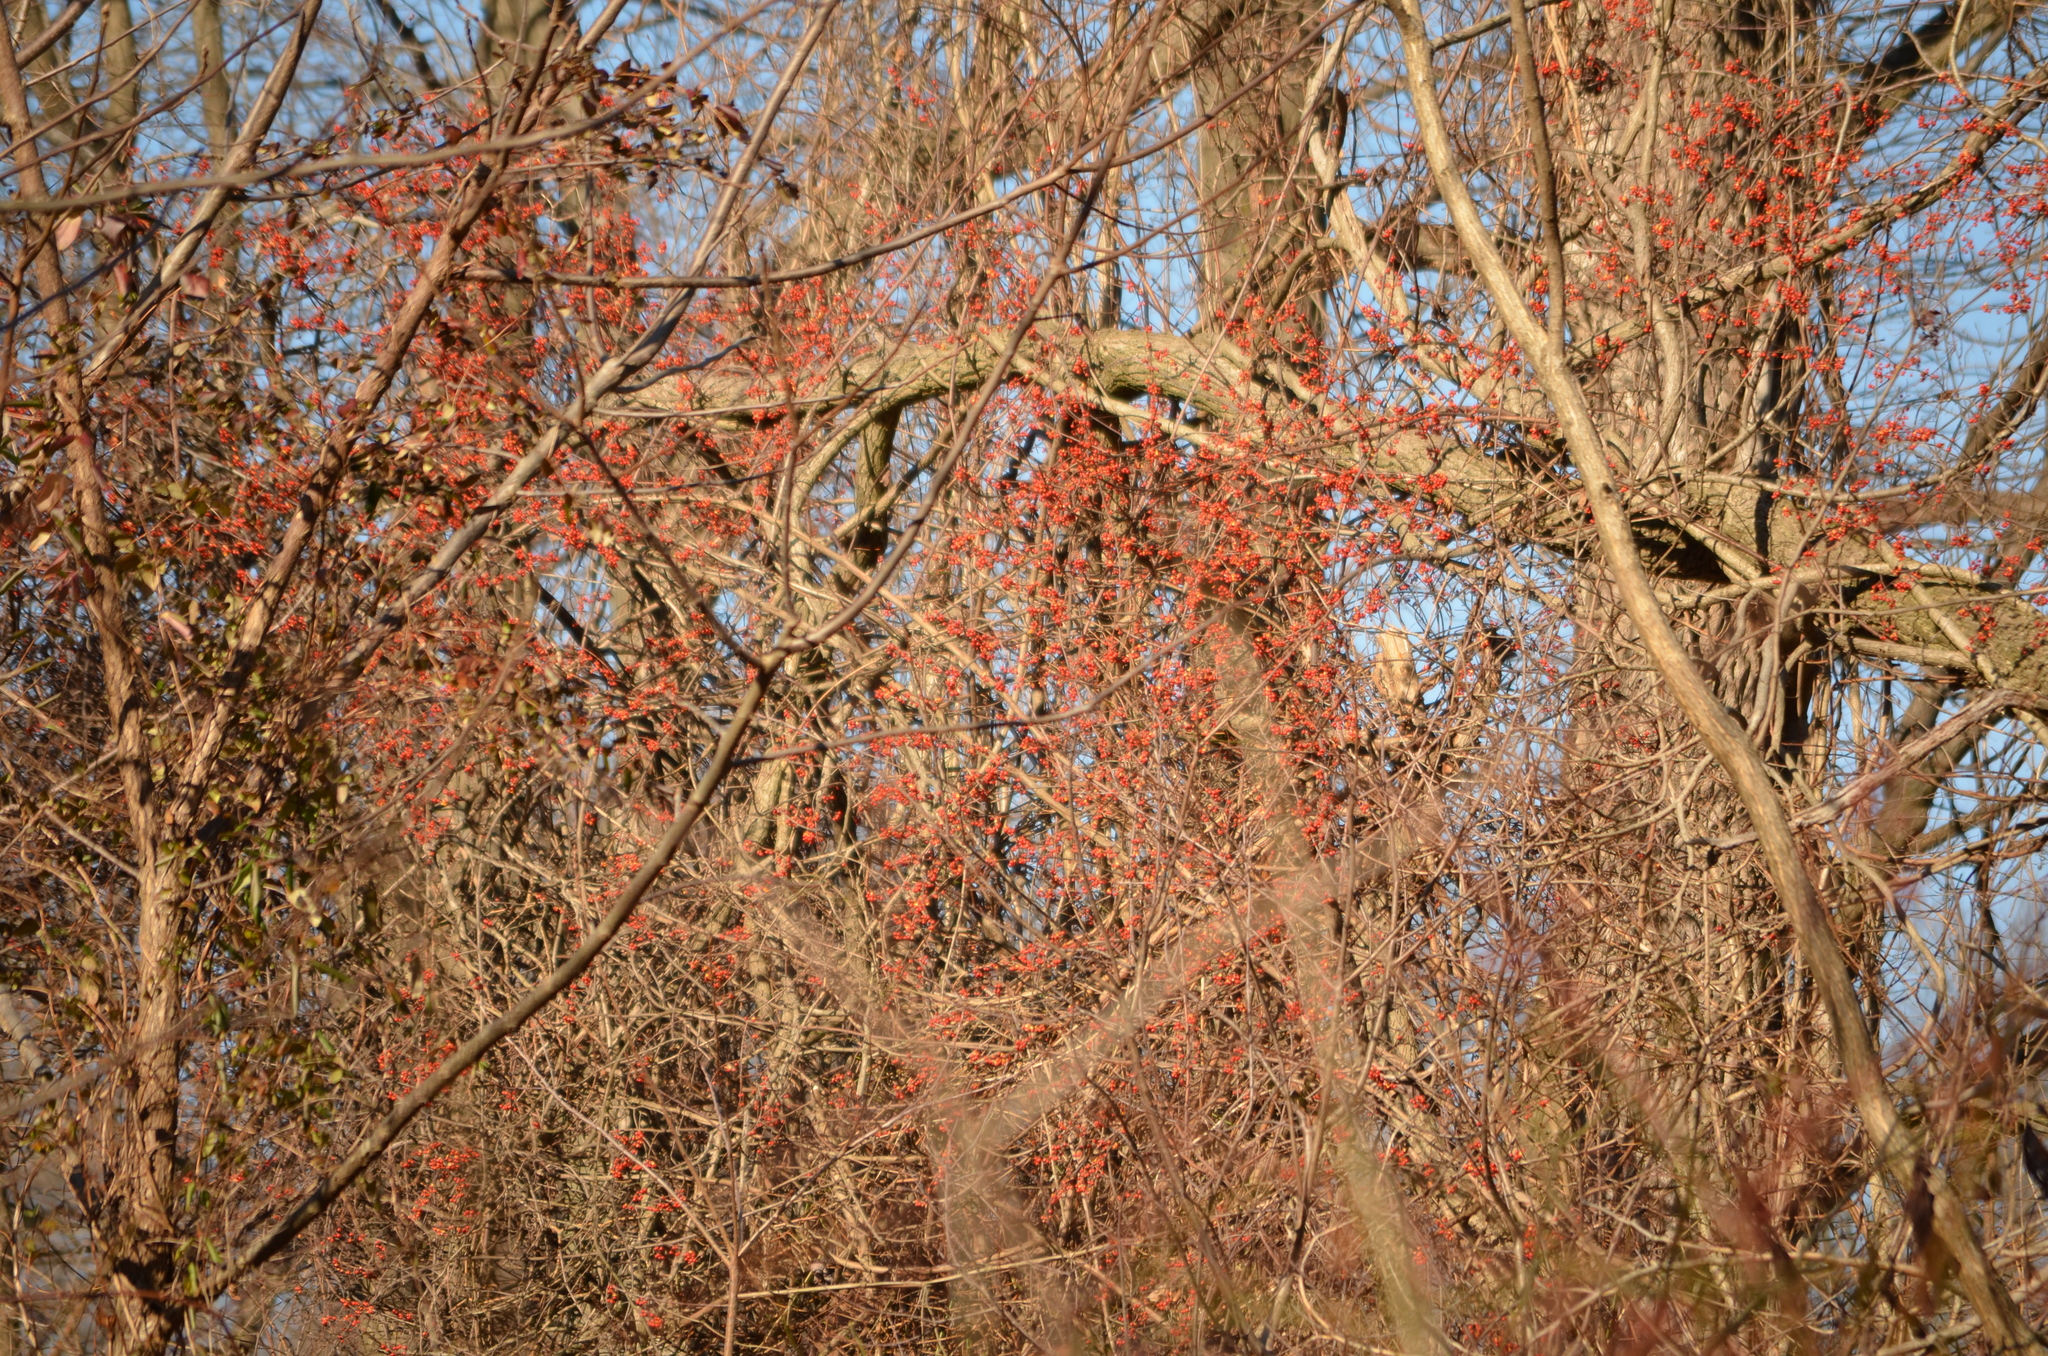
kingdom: Plantae
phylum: Tracheophyta
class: Magnoliopsida
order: Celastrales
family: Celastraceae
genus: Celastrus
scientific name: Celastrus orbiculatus
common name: Oriental bittersweet
